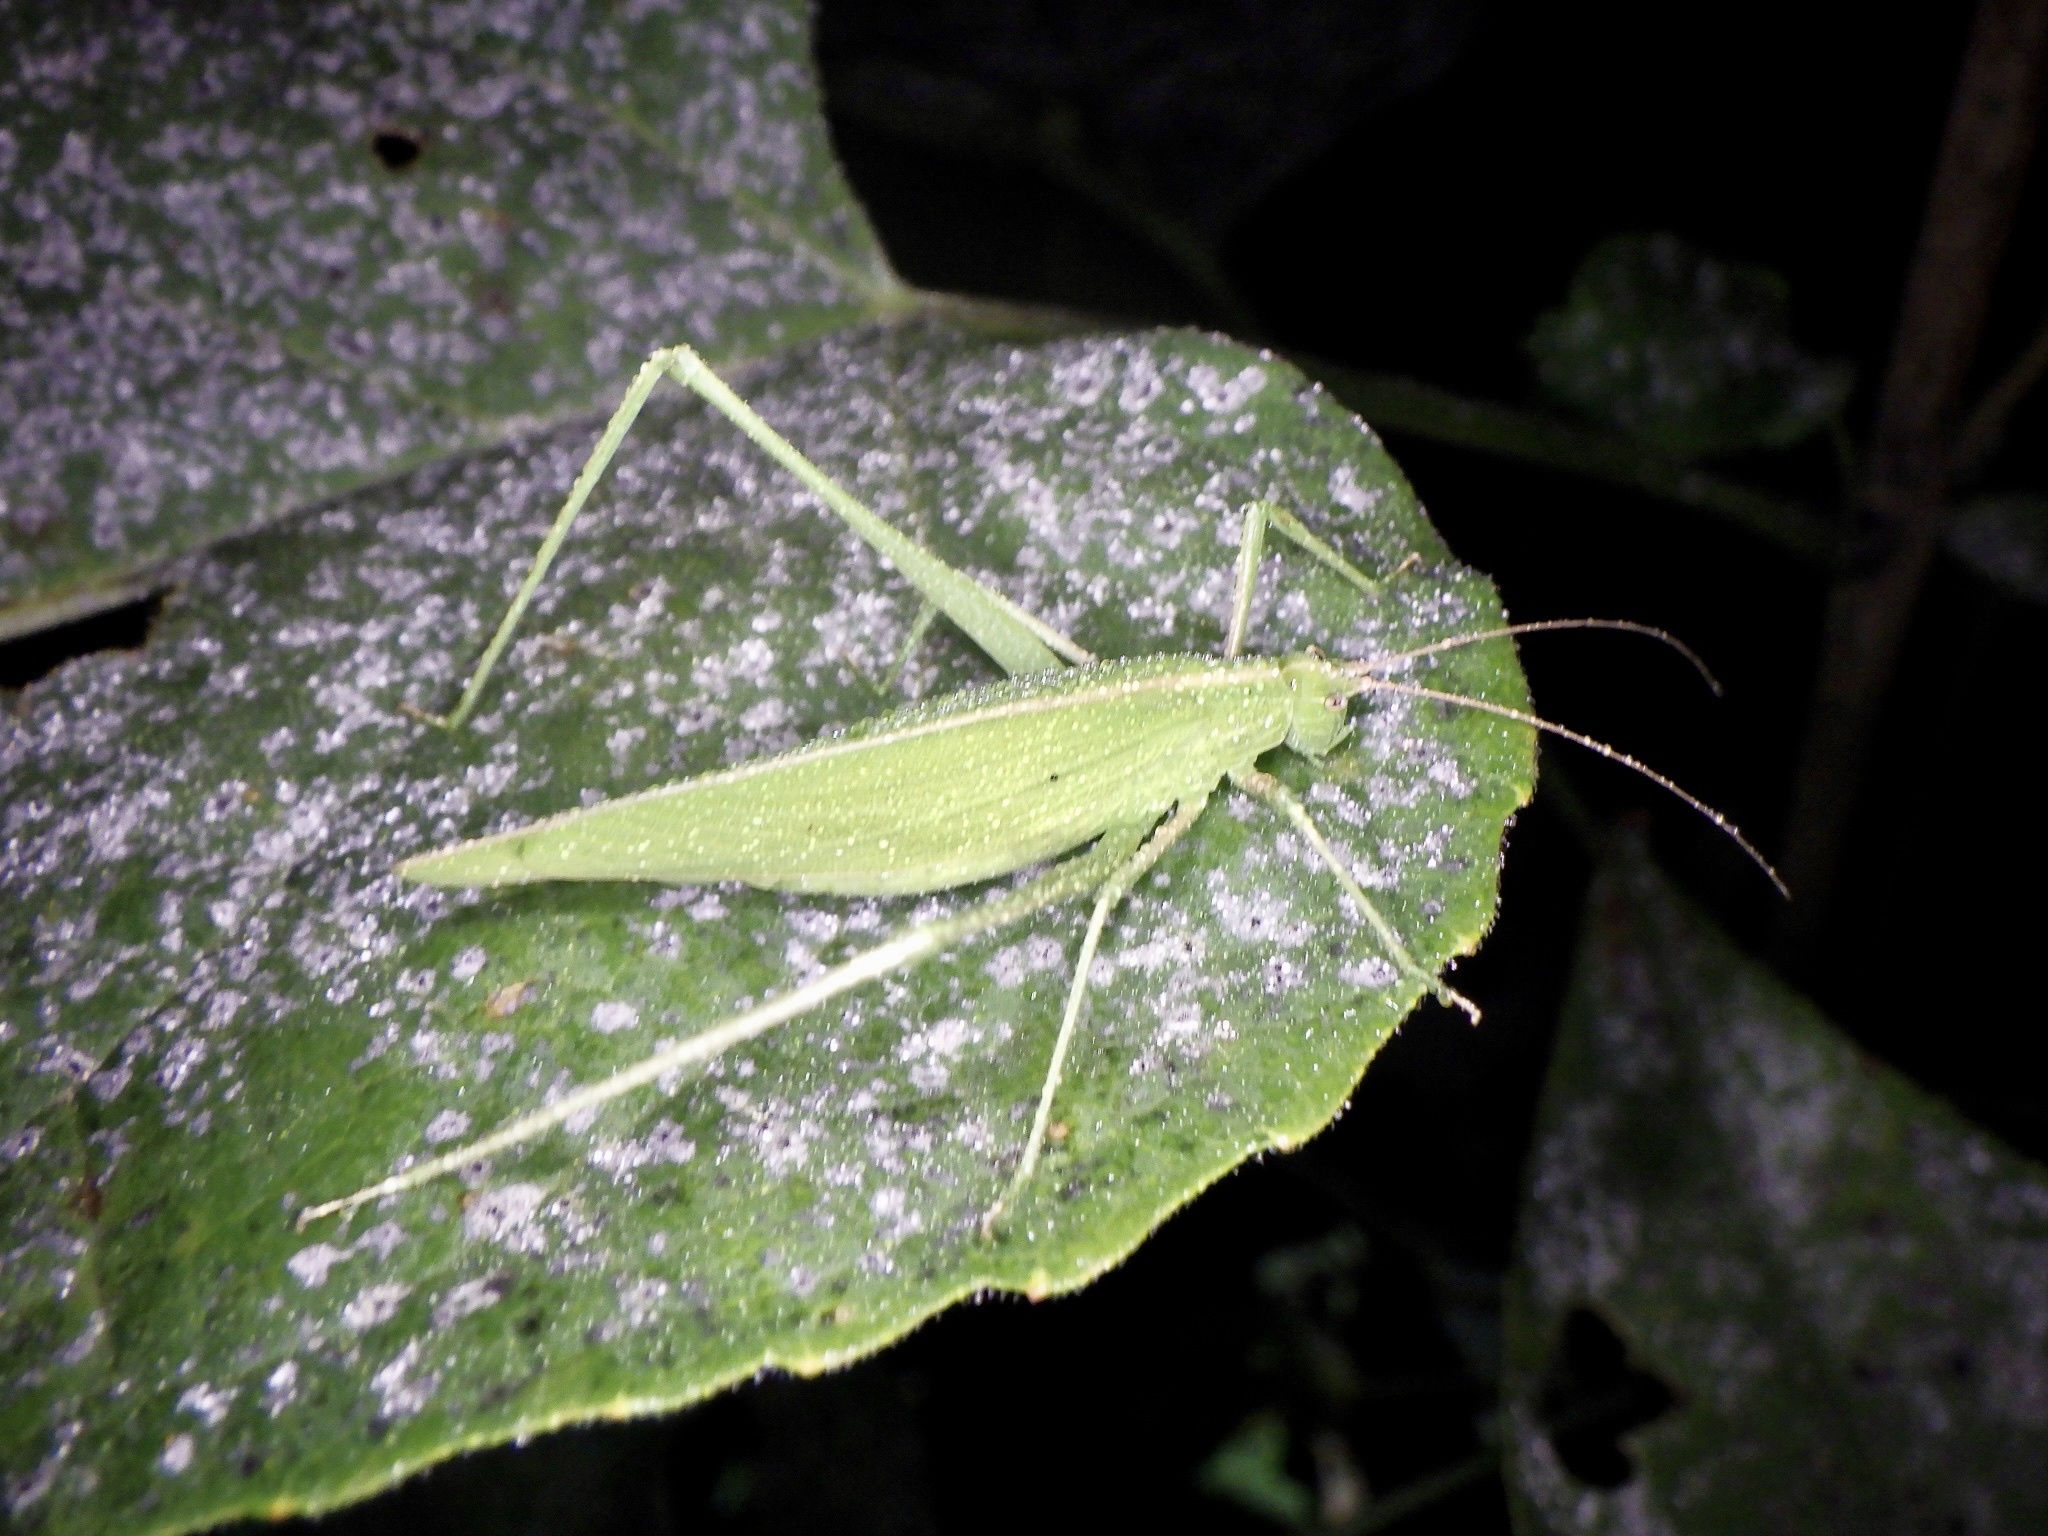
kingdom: Animalia
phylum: Arthropoda
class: Insecta
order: Orthoptera
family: Tettigoniidae
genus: Ducetia
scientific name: Ducetia japonica
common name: Pacific ducetia
